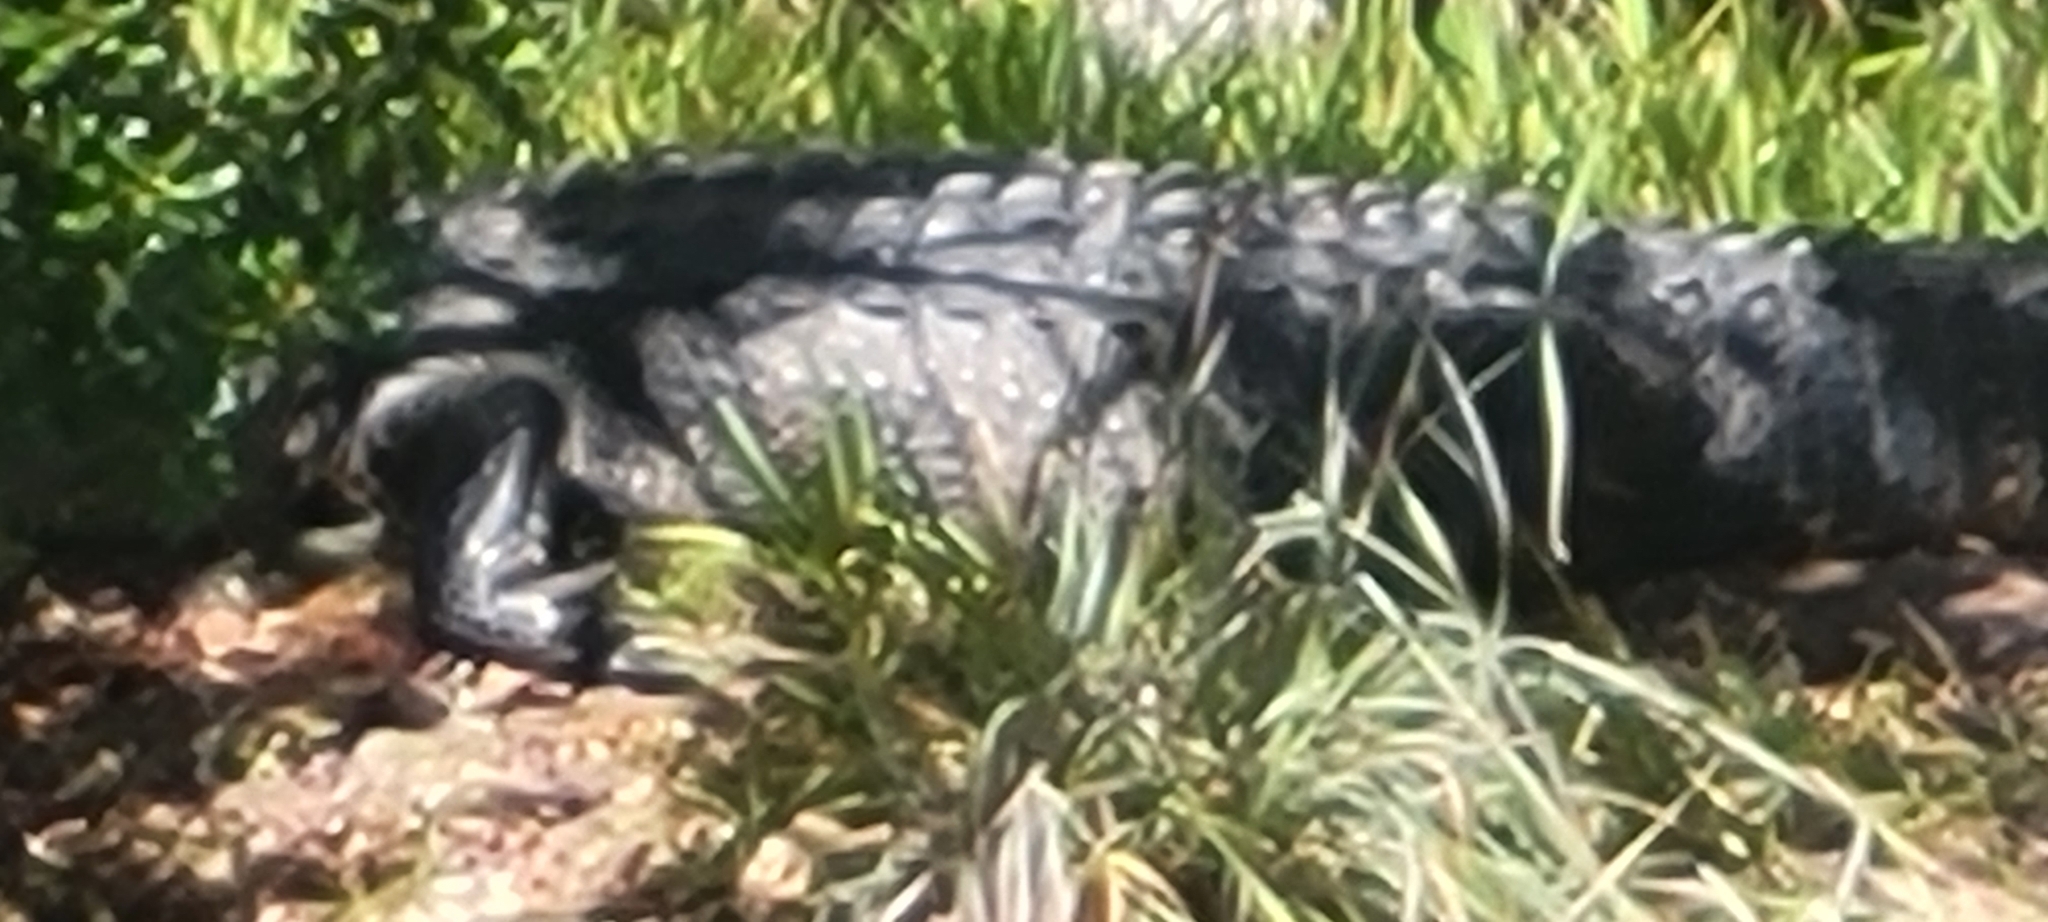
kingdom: Animalia
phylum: Chordata
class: Crocodylia
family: Alligatoridae
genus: Alligator
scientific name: Alligator mississippiensis
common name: American alligator
